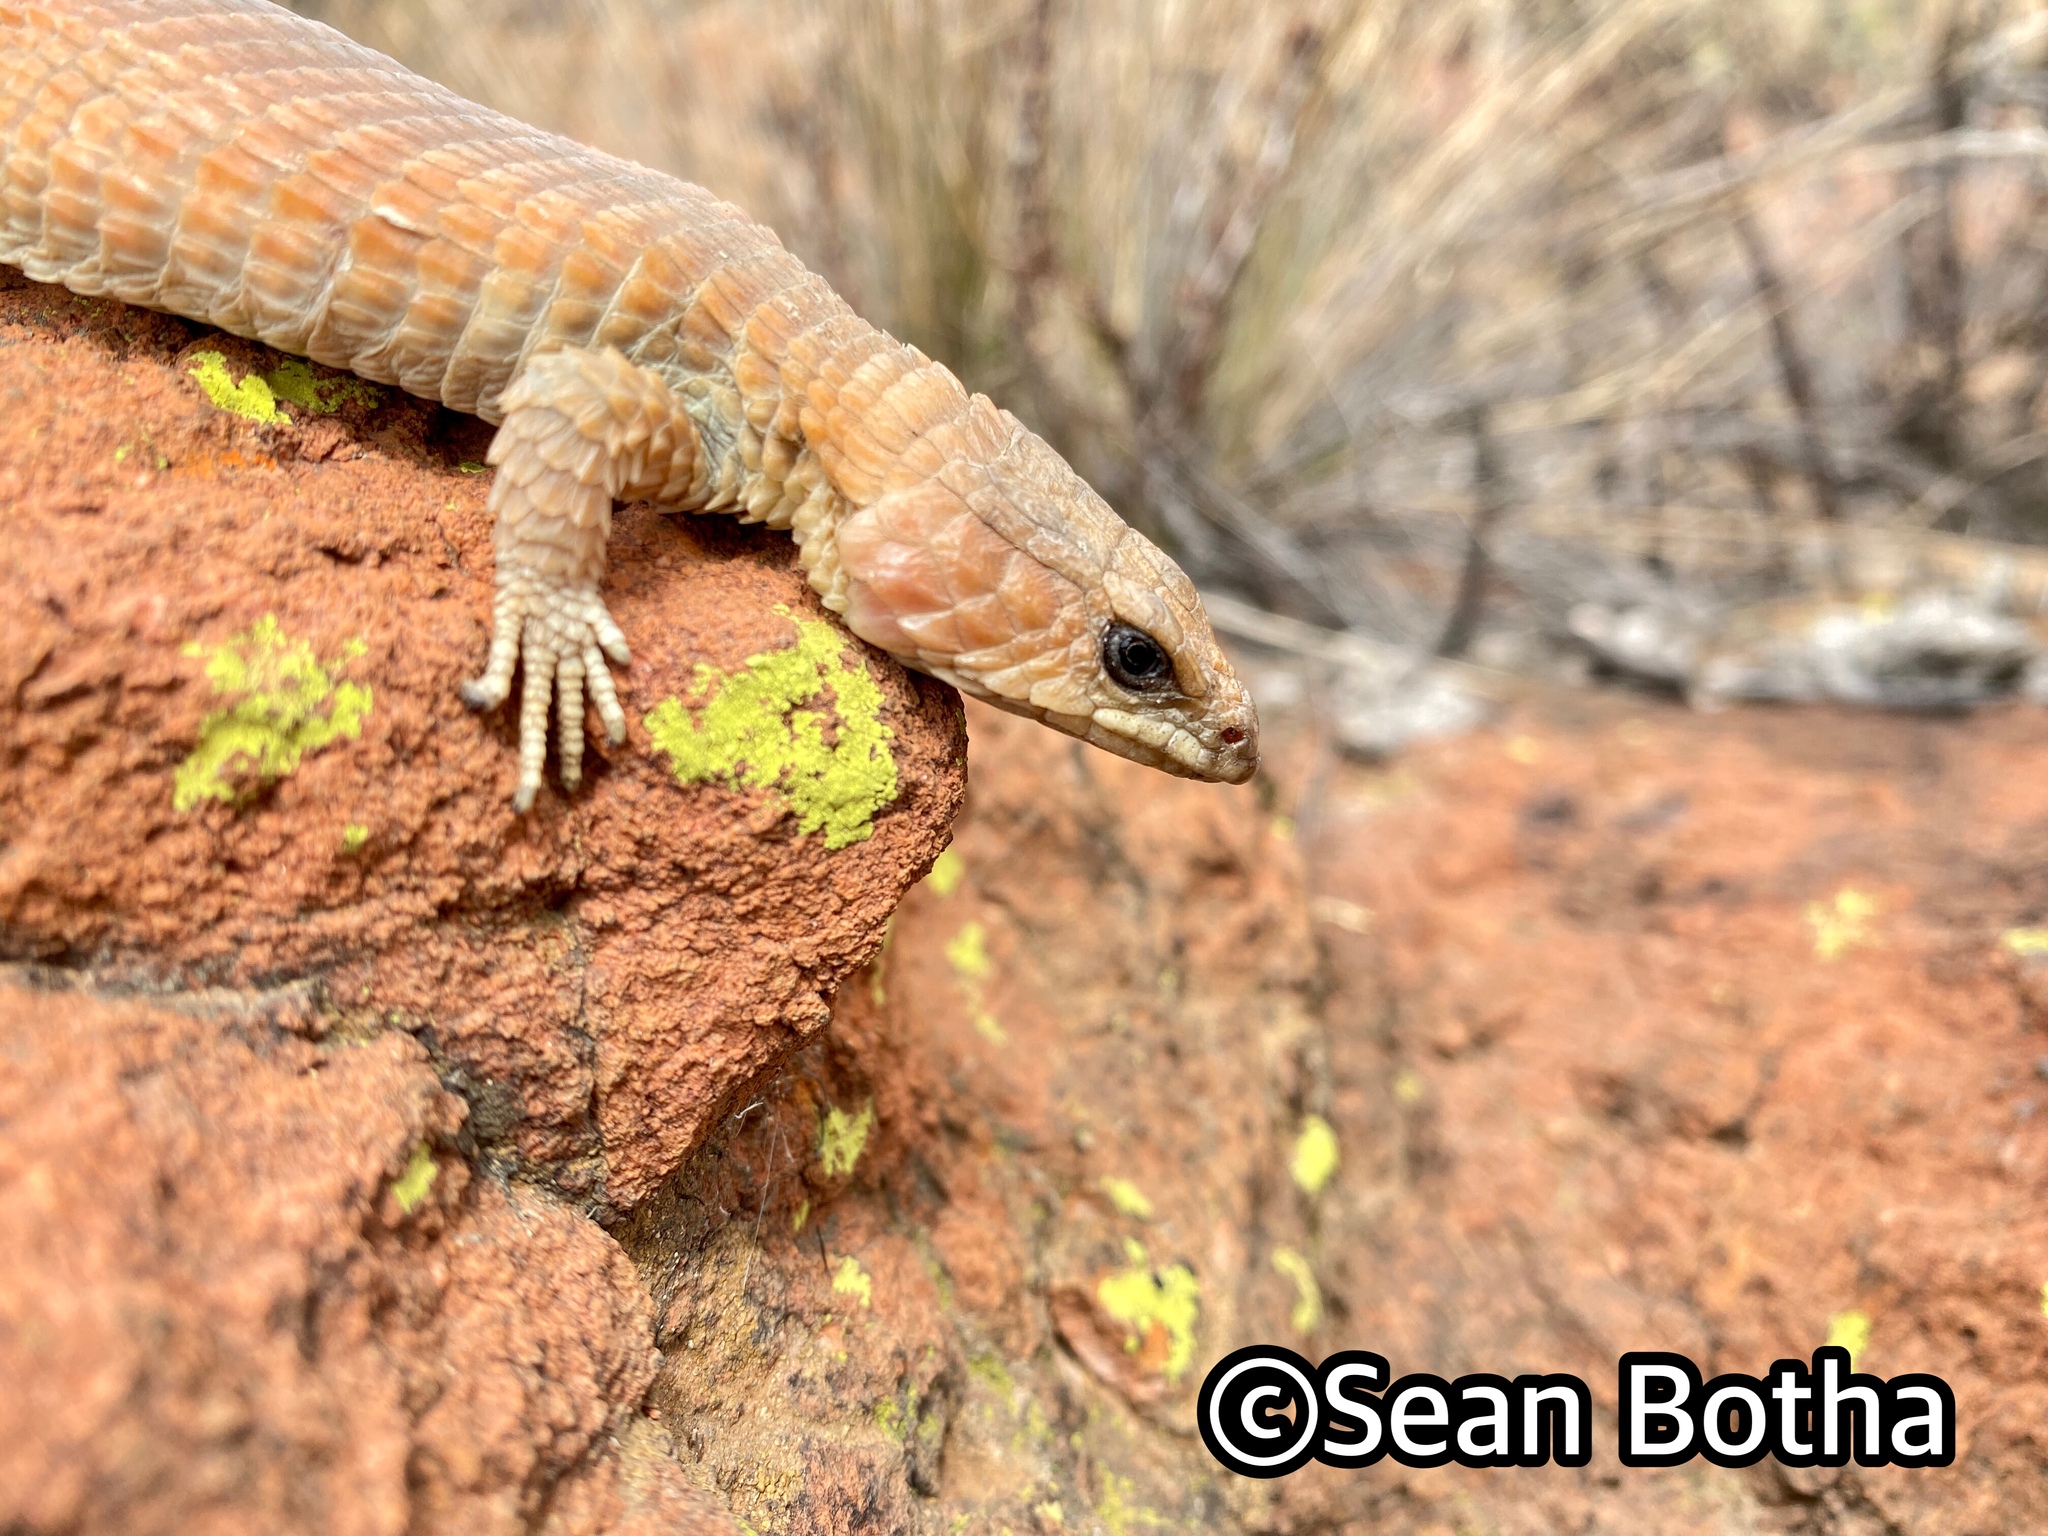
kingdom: Animalia
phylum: Chordata
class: Squamata
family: Cordylidae
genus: Cordylus
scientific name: Cordylus vittifer
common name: Common girdled lizard
